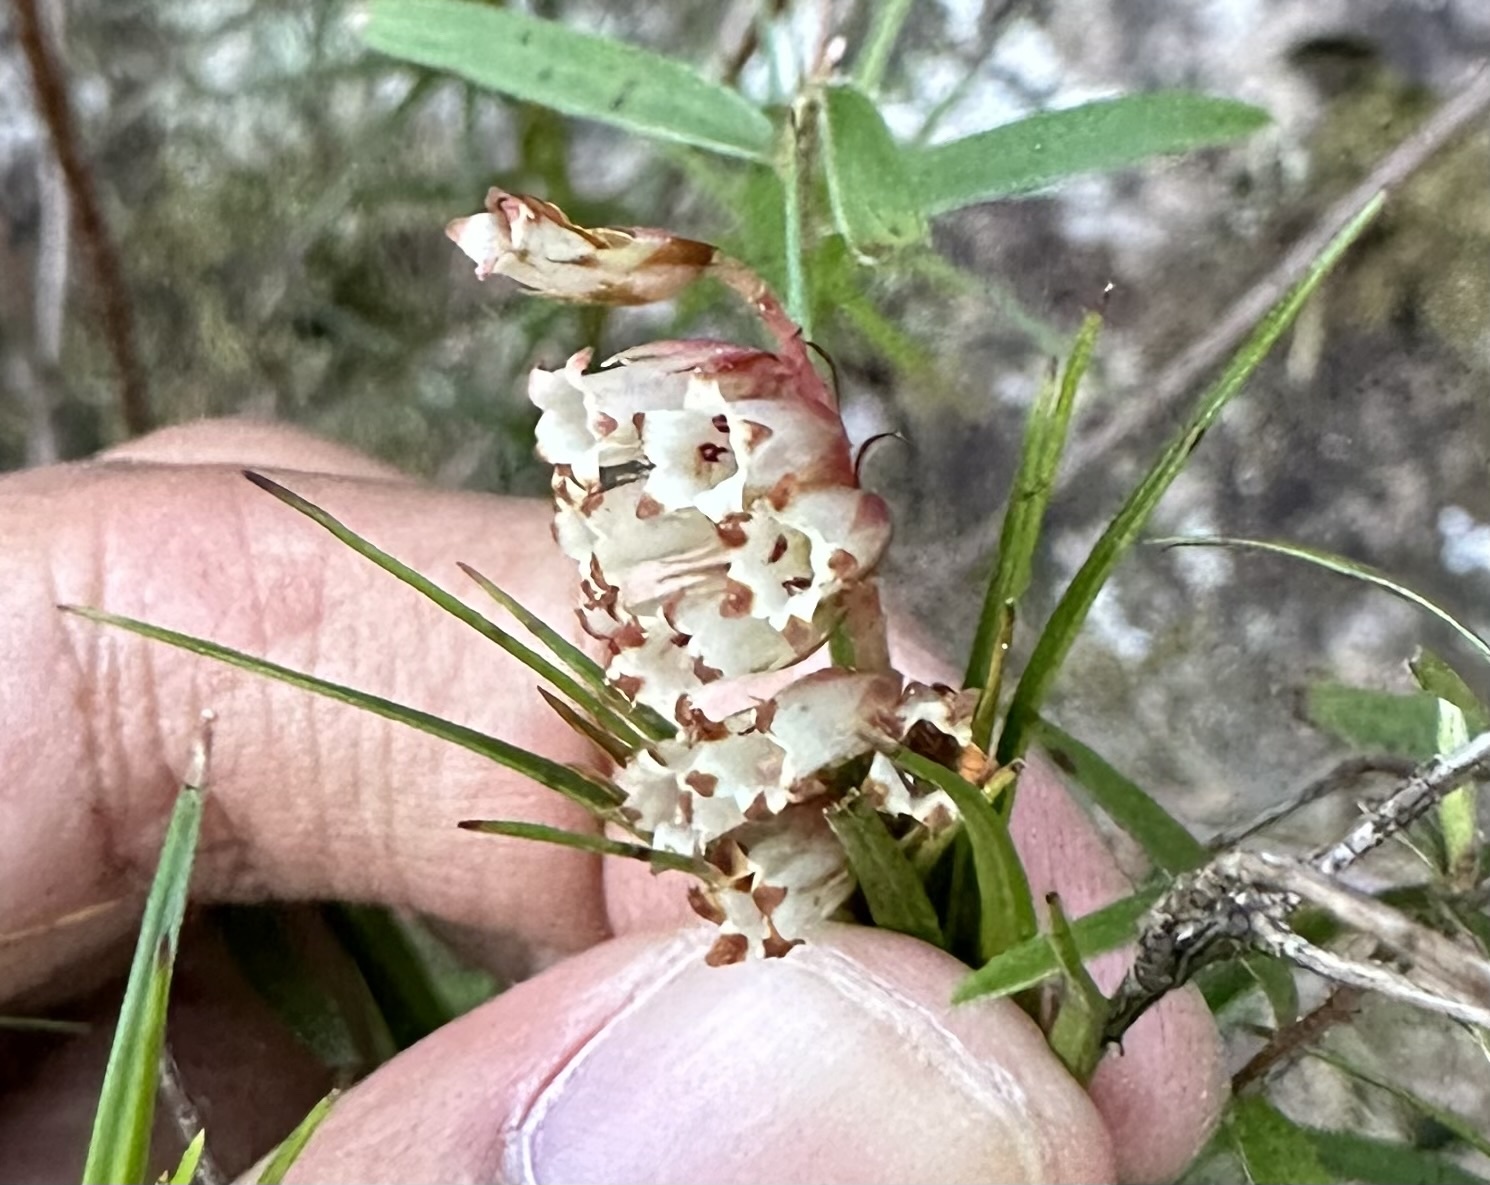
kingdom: Plantae
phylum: Tracheophyta
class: Magnoliopsida
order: Ericales
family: Ericaceae
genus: Dracophyllum
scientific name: Dracophyllum secundum
